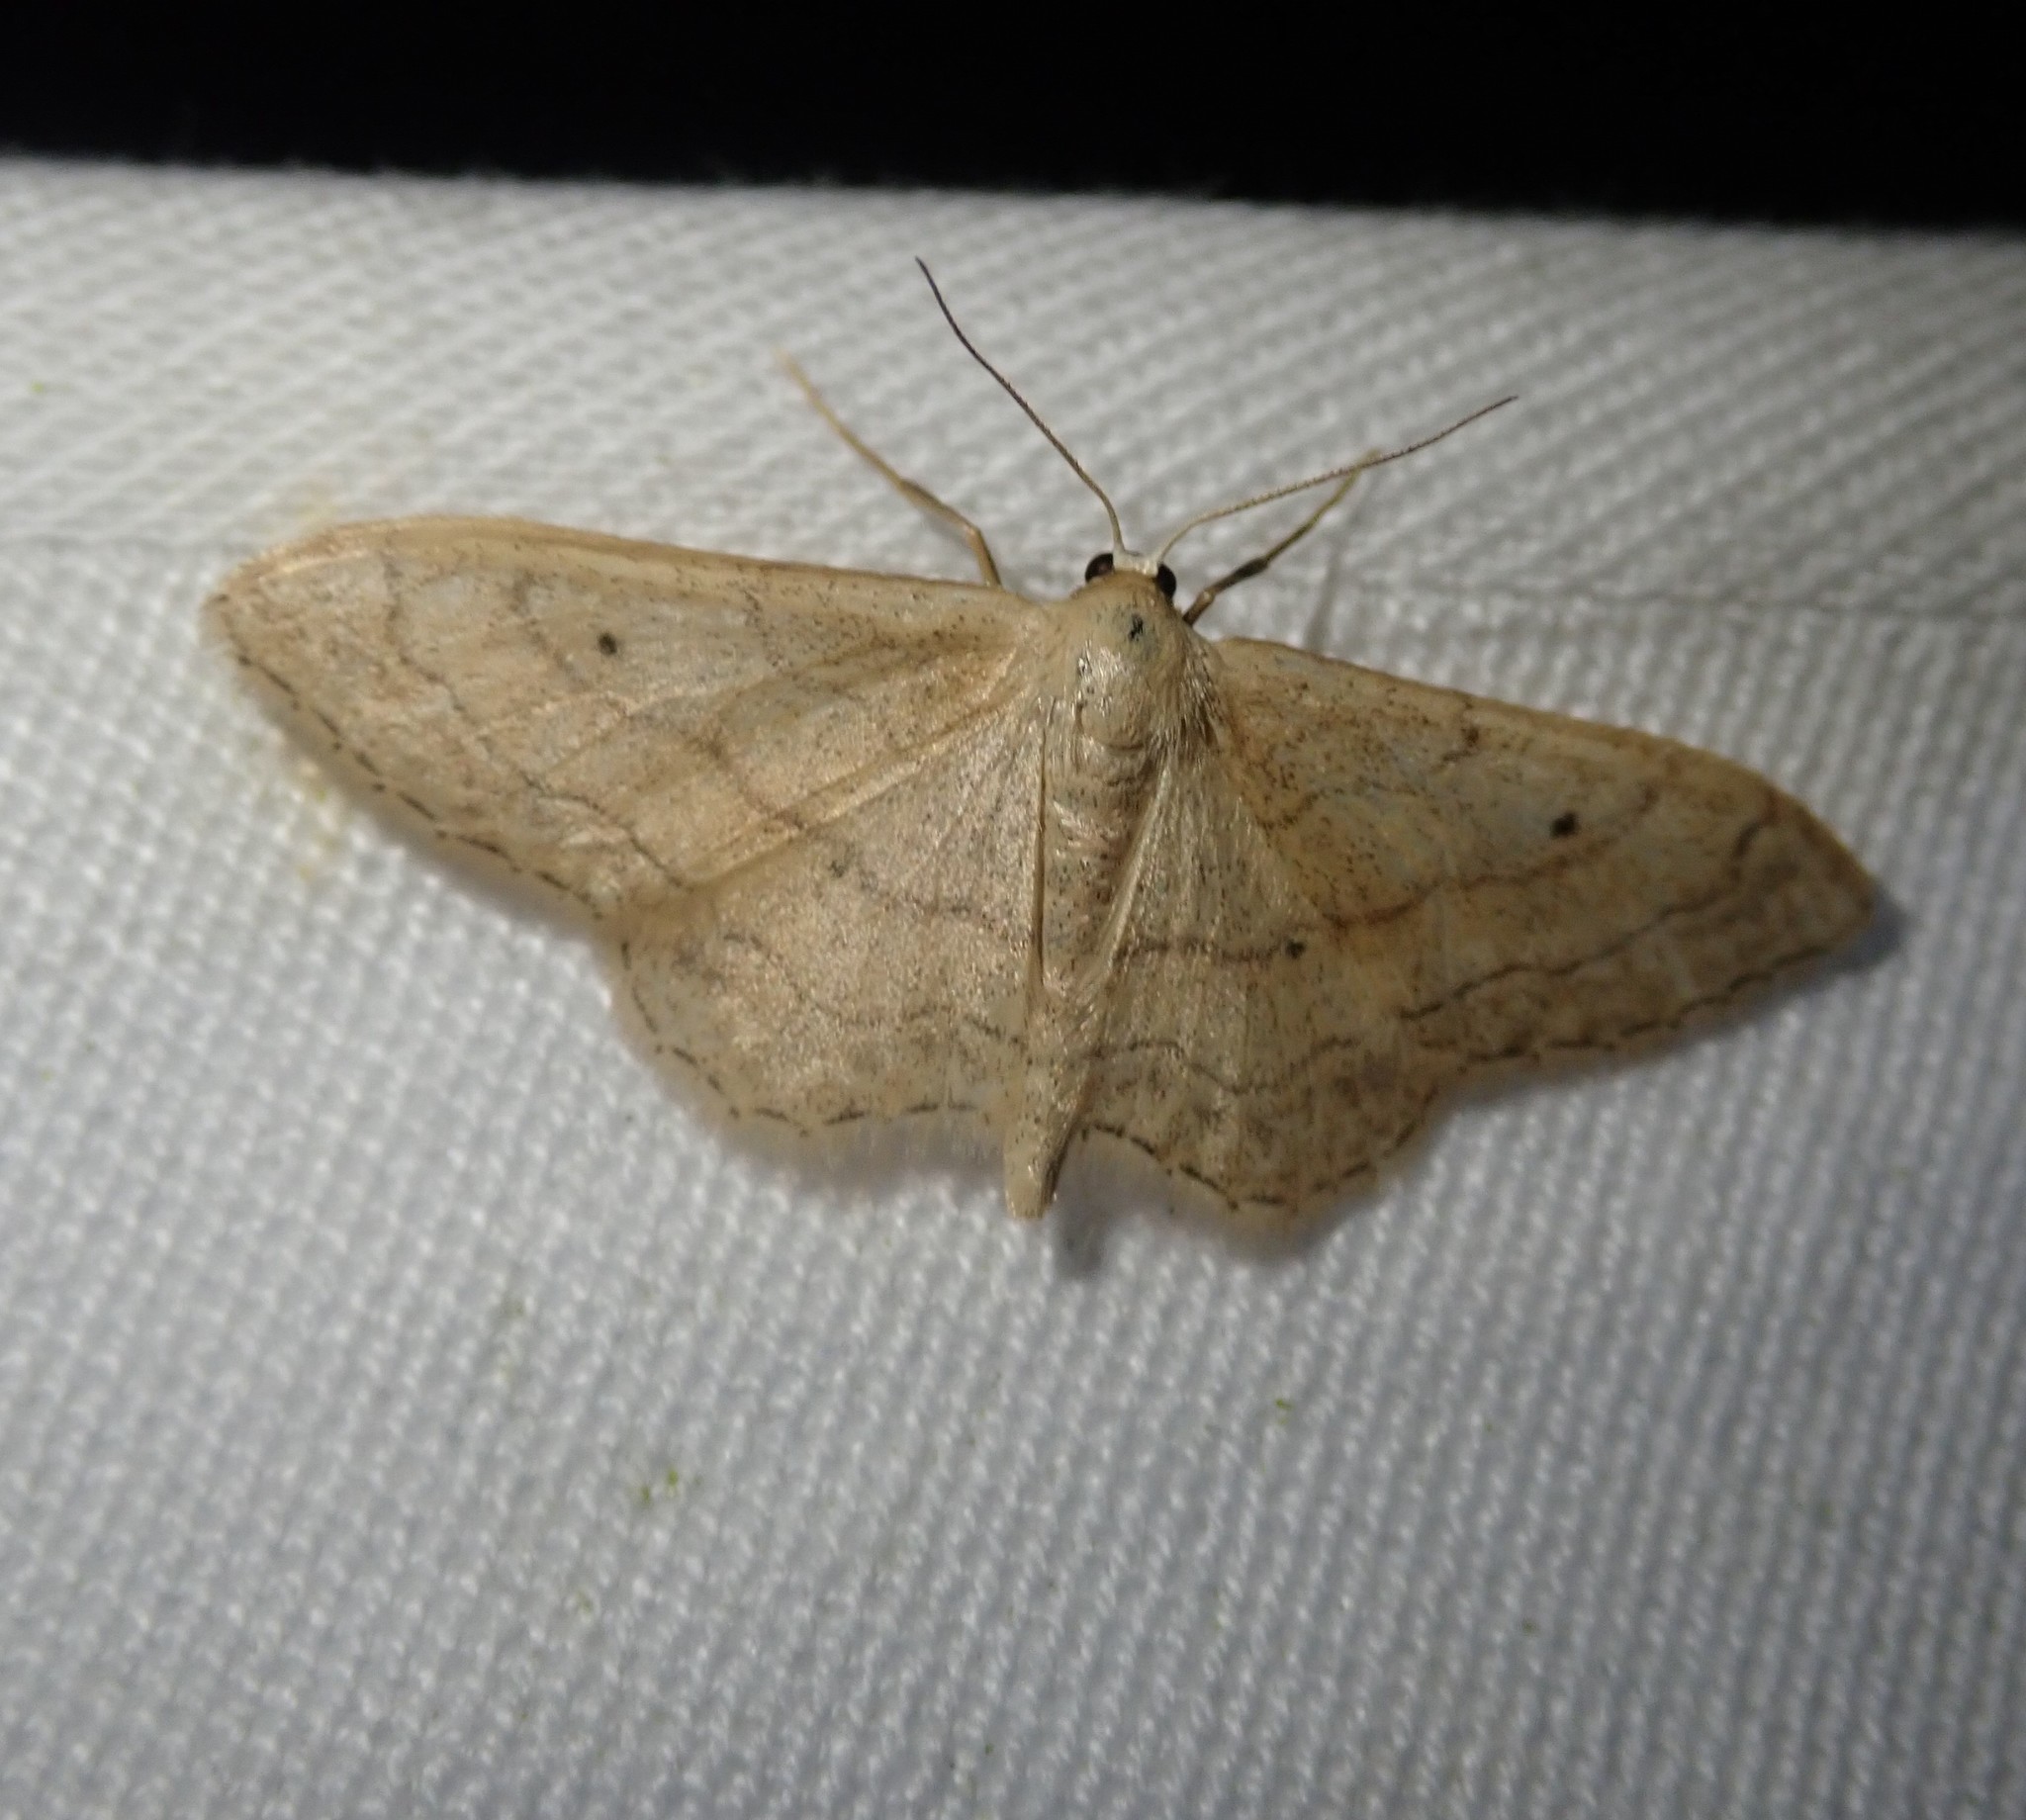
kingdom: Animalia
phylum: Arthropoda
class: Insecta
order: Lepidoptera
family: Geometridae
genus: Idaea
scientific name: Idaea aversata
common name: Riband wave
